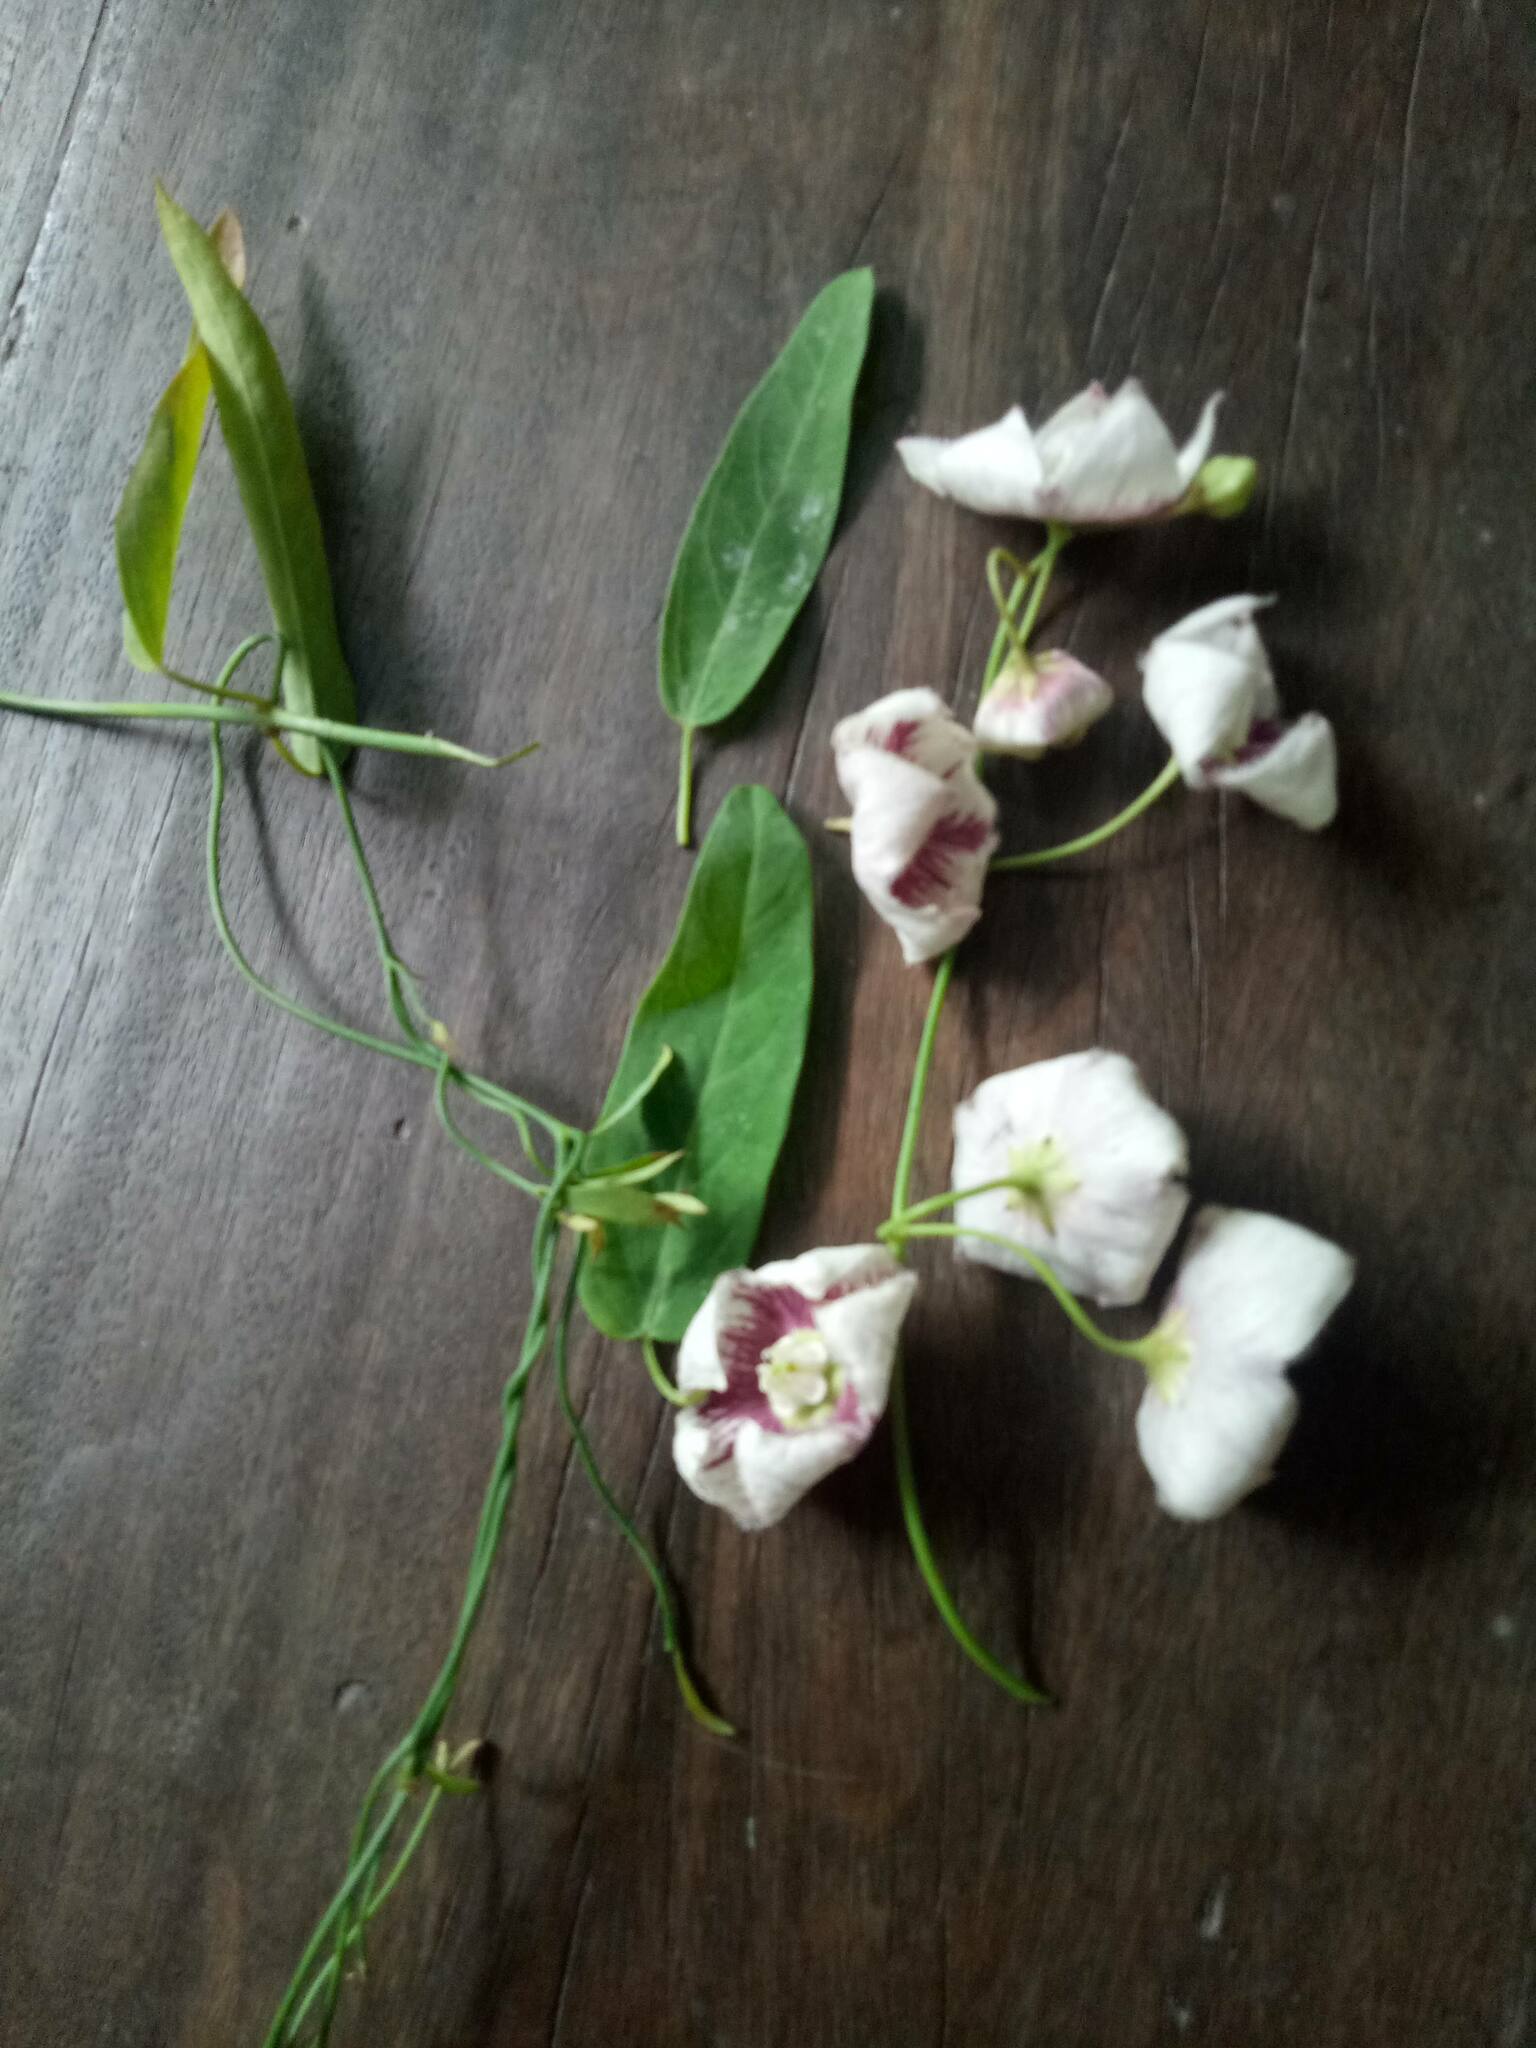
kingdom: Plantae
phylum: Tracheophyta
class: Magnoliopsida
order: Gentianales
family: Apocynaceae
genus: Oxystelma
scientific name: Oxystelma wallichii
